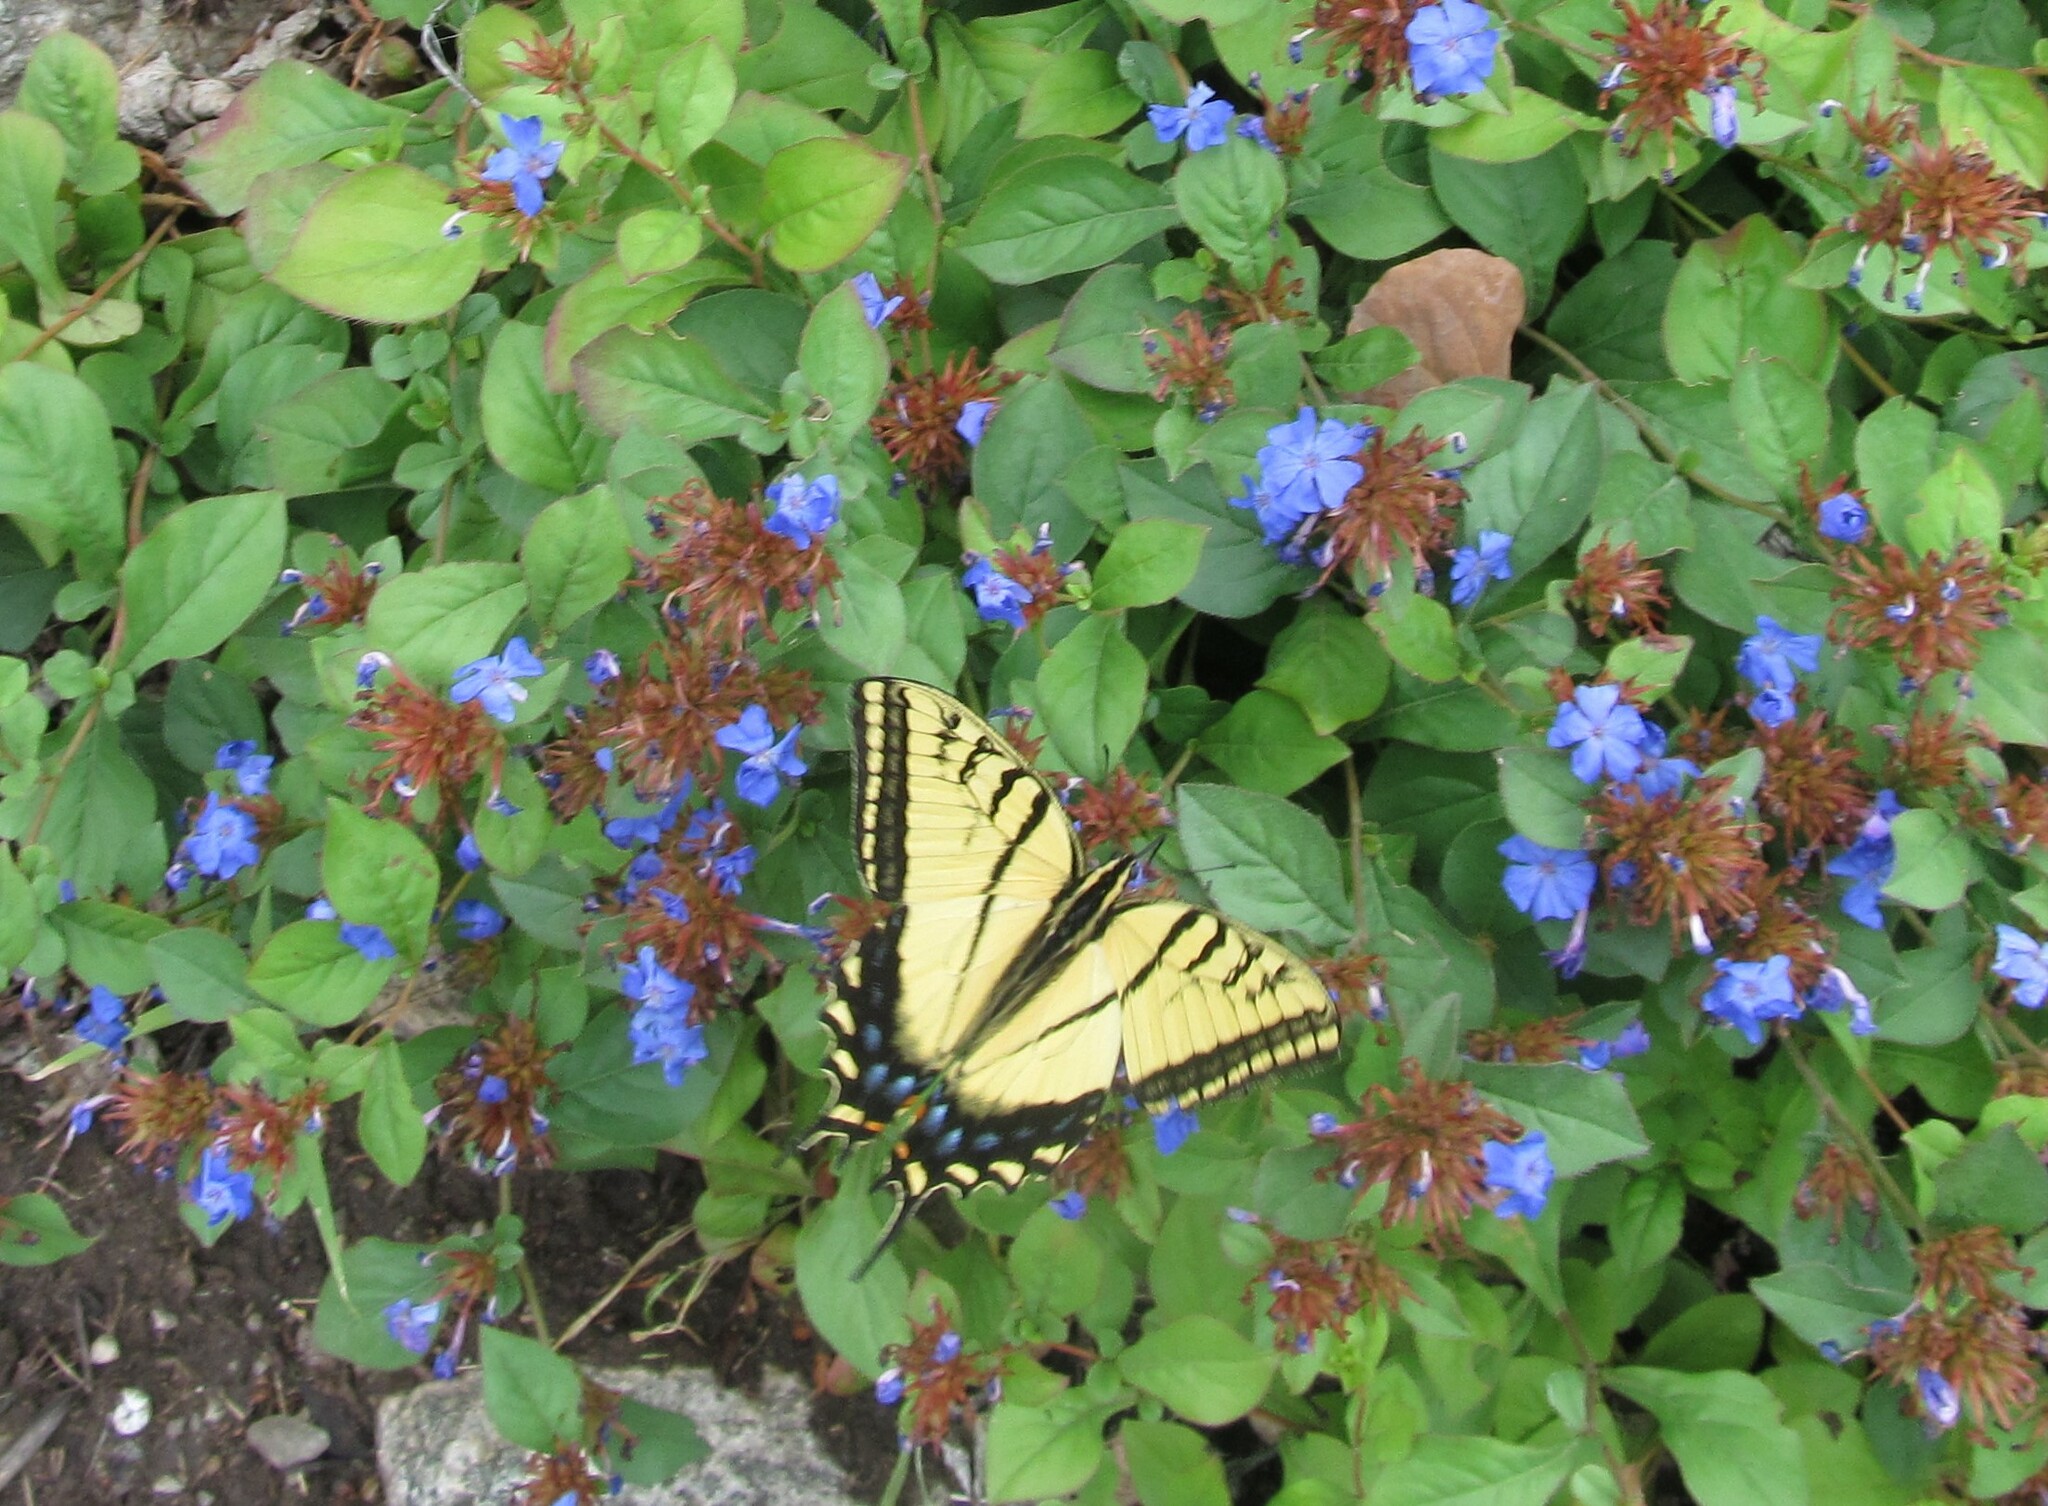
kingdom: Animalia
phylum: Arthropoda
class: Insecta
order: Lepidoptera
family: Papilionidae
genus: Papilio
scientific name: Papilio multicaudata
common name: Two-tailed tiger swallowtail
